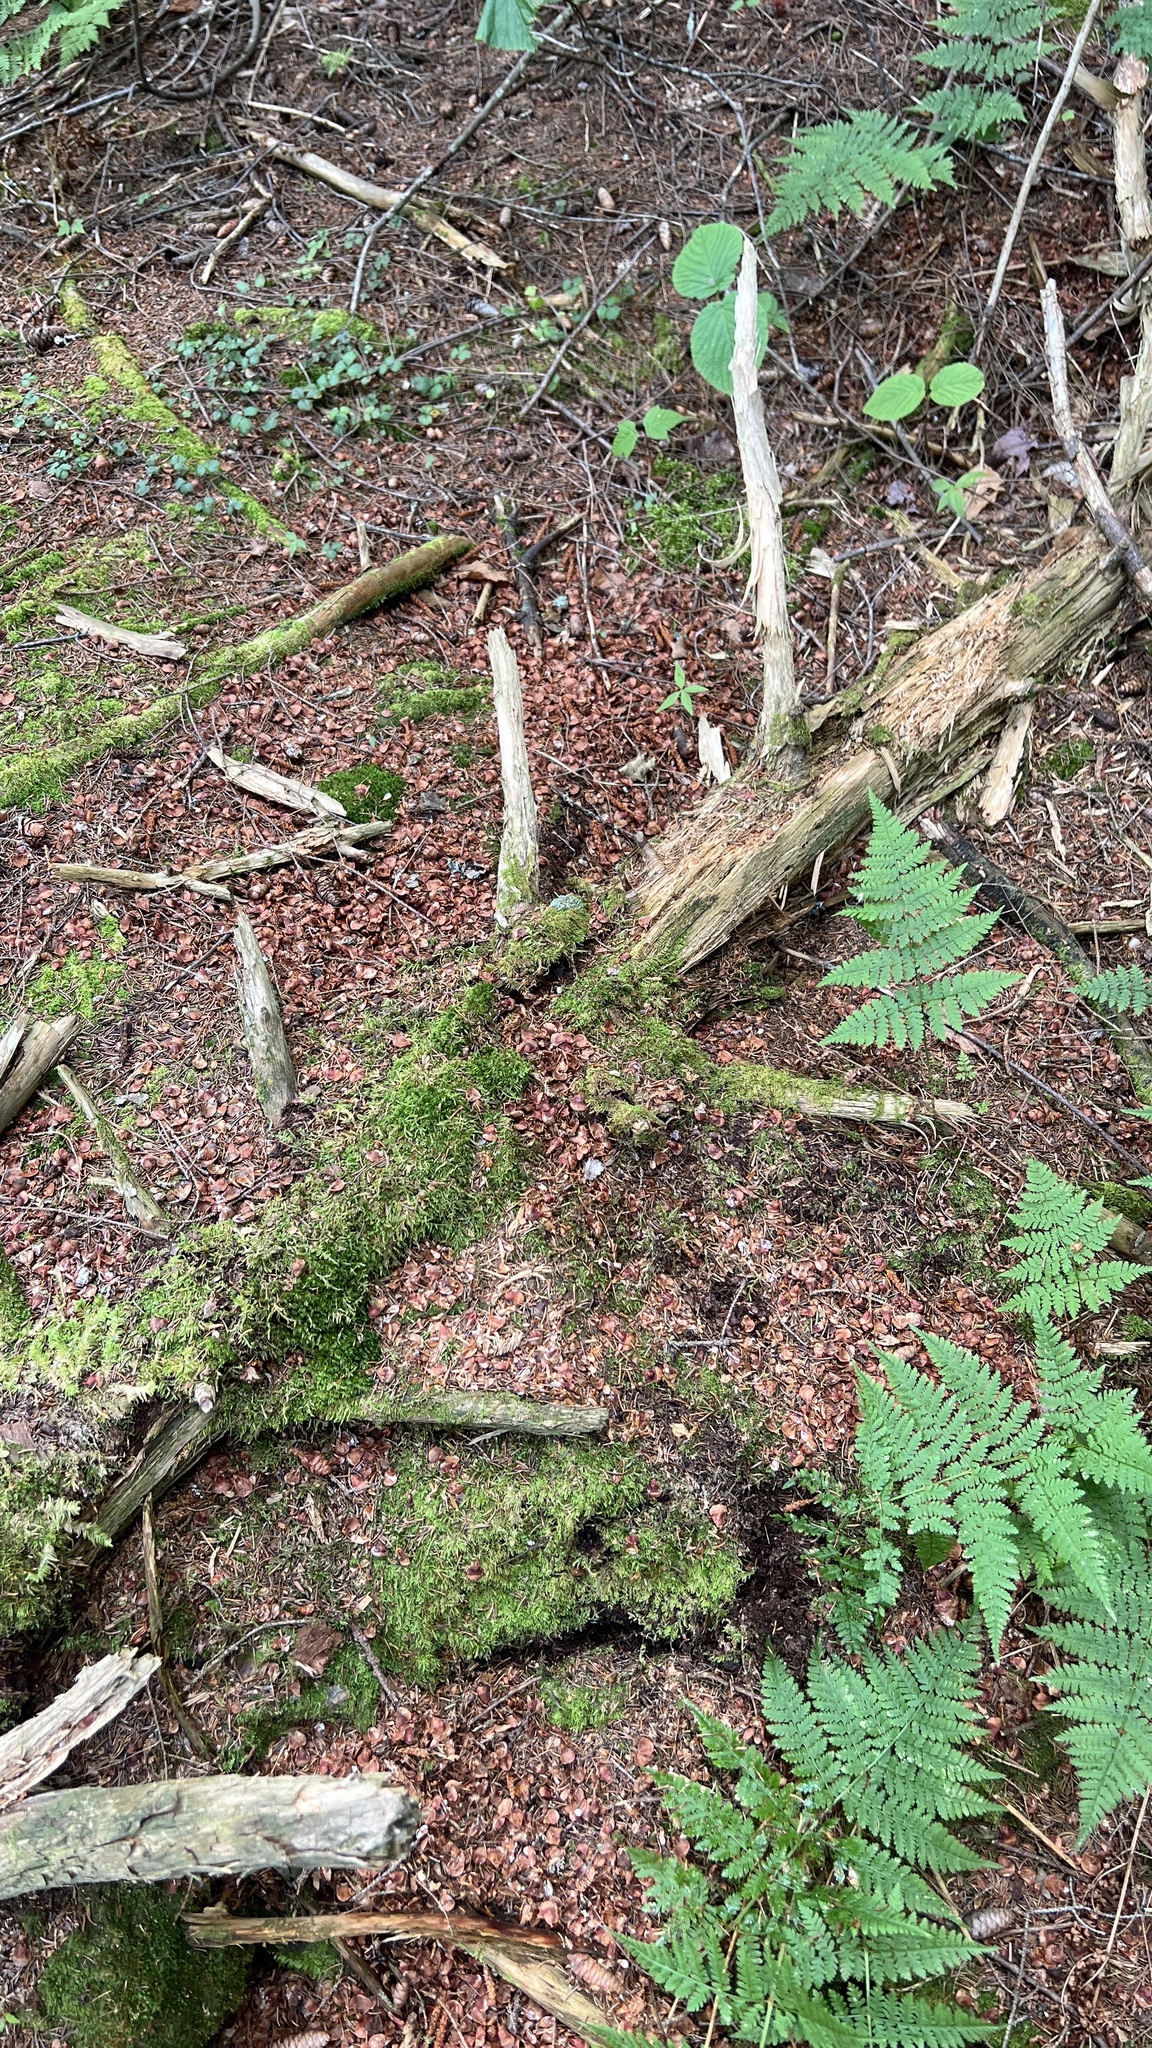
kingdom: Animalia
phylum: Chordata
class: Mammalia
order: Rodentia
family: Sciuridae
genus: Tamiasciurus
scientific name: Tamiasciurus hudsonicus
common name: Red squirrel
